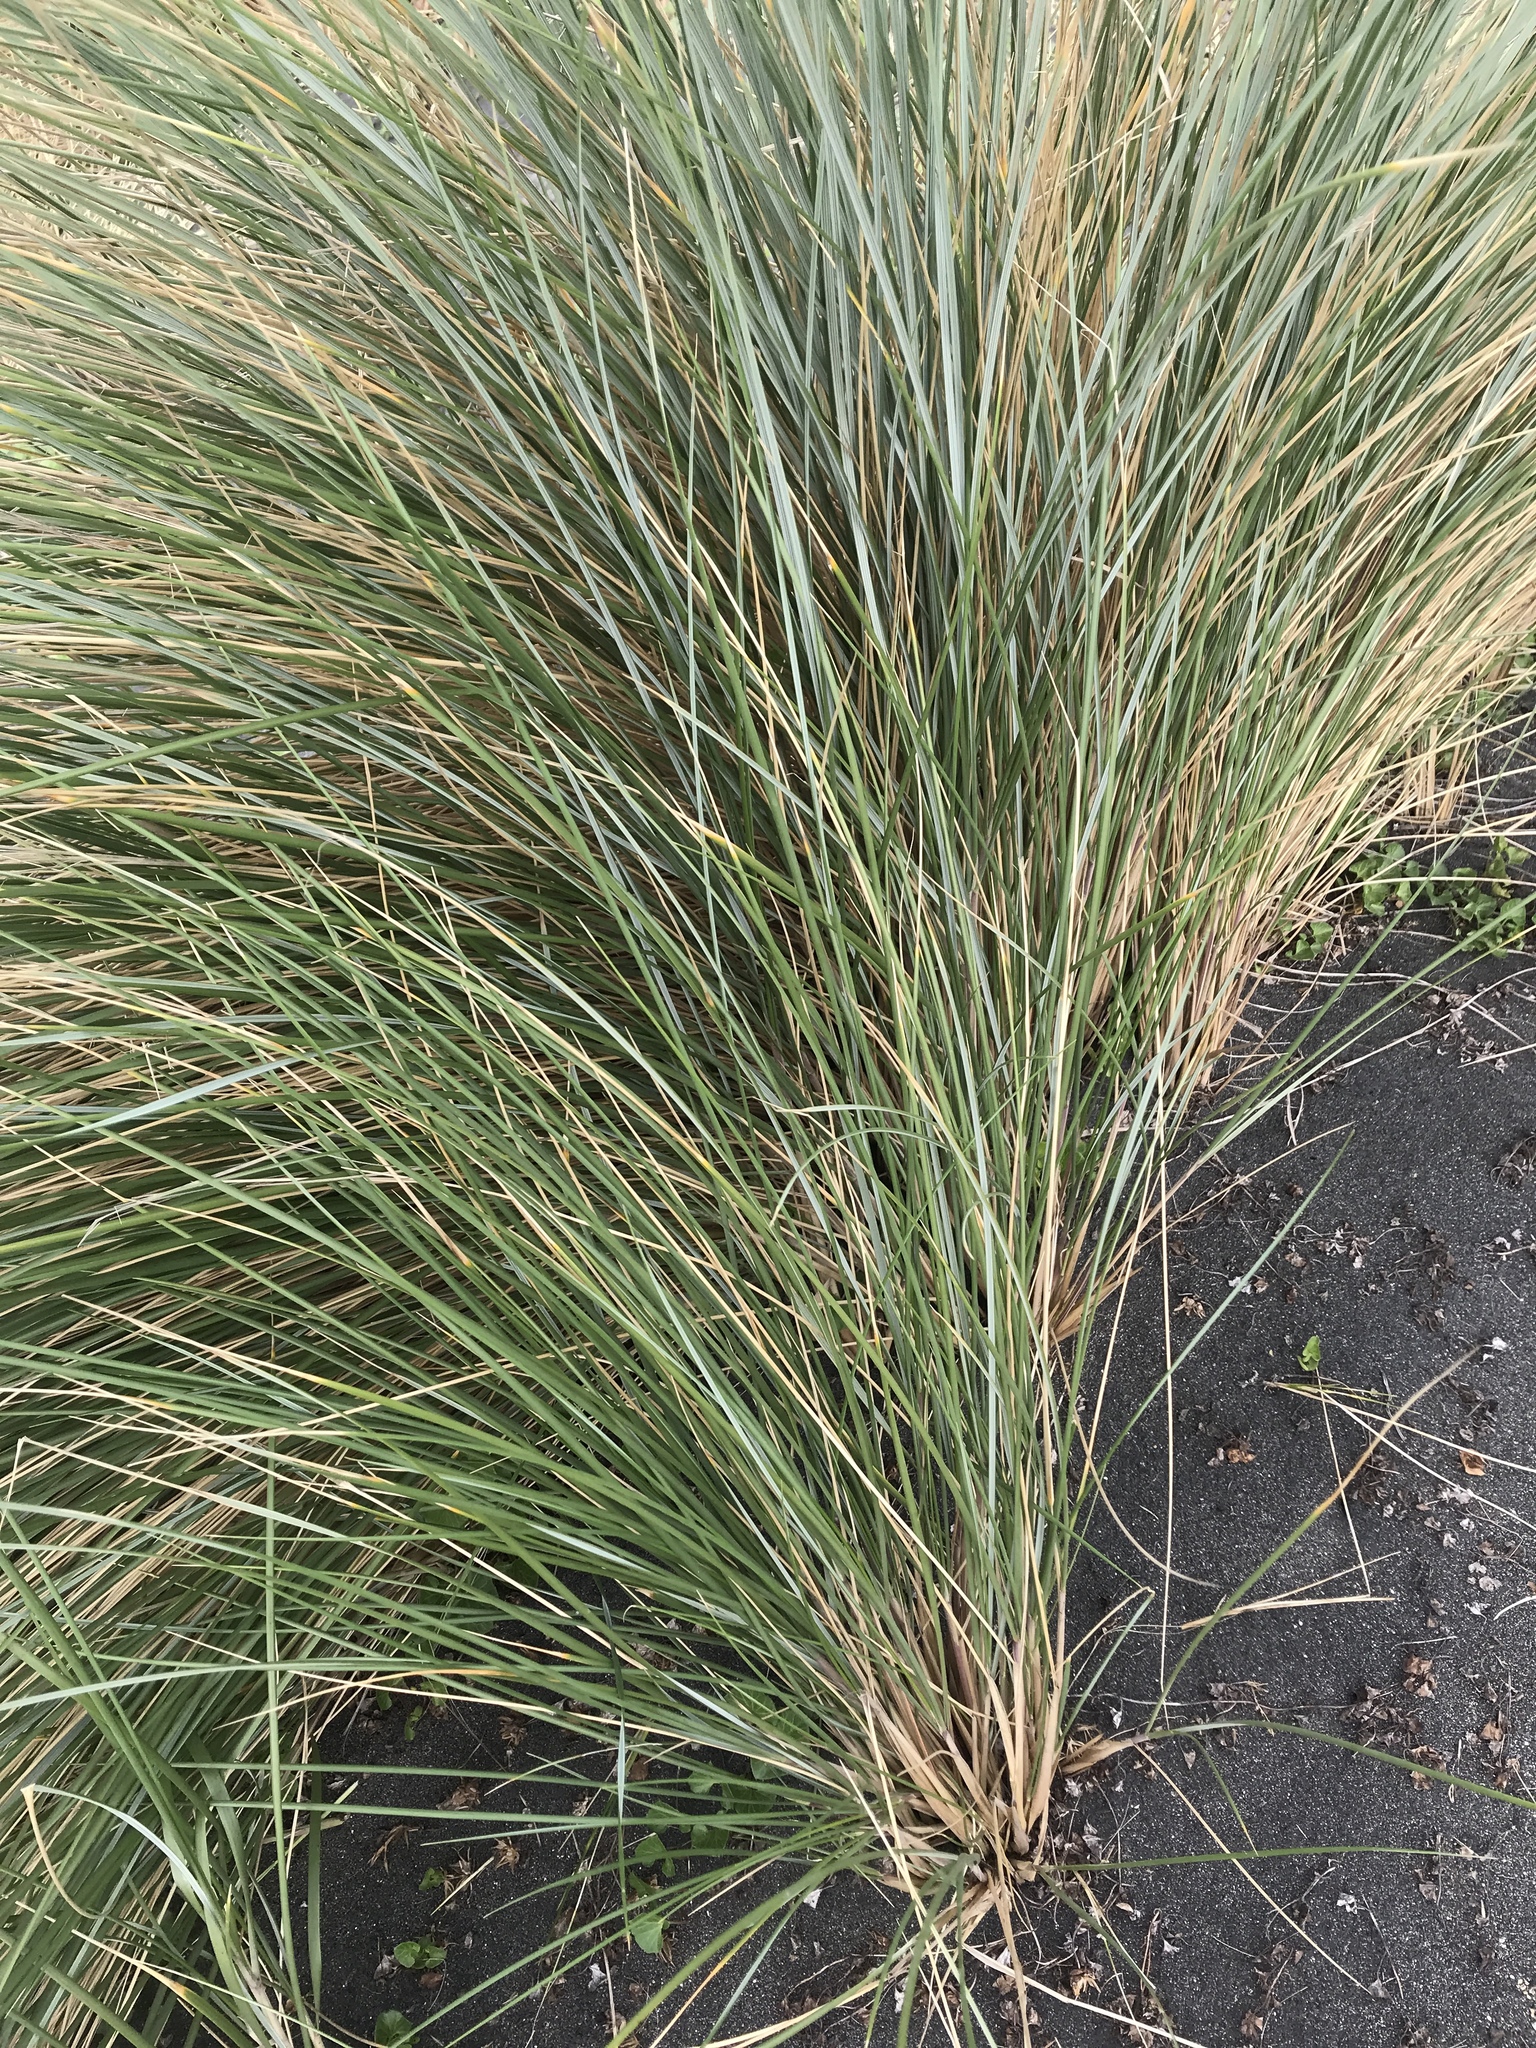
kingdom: Plantae
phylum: Tracheophyta
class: Liliopsida
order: Poales
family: Poaceae
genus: Calamagrostis
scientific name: Calamagrostis arenaria
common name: European beachgrass
